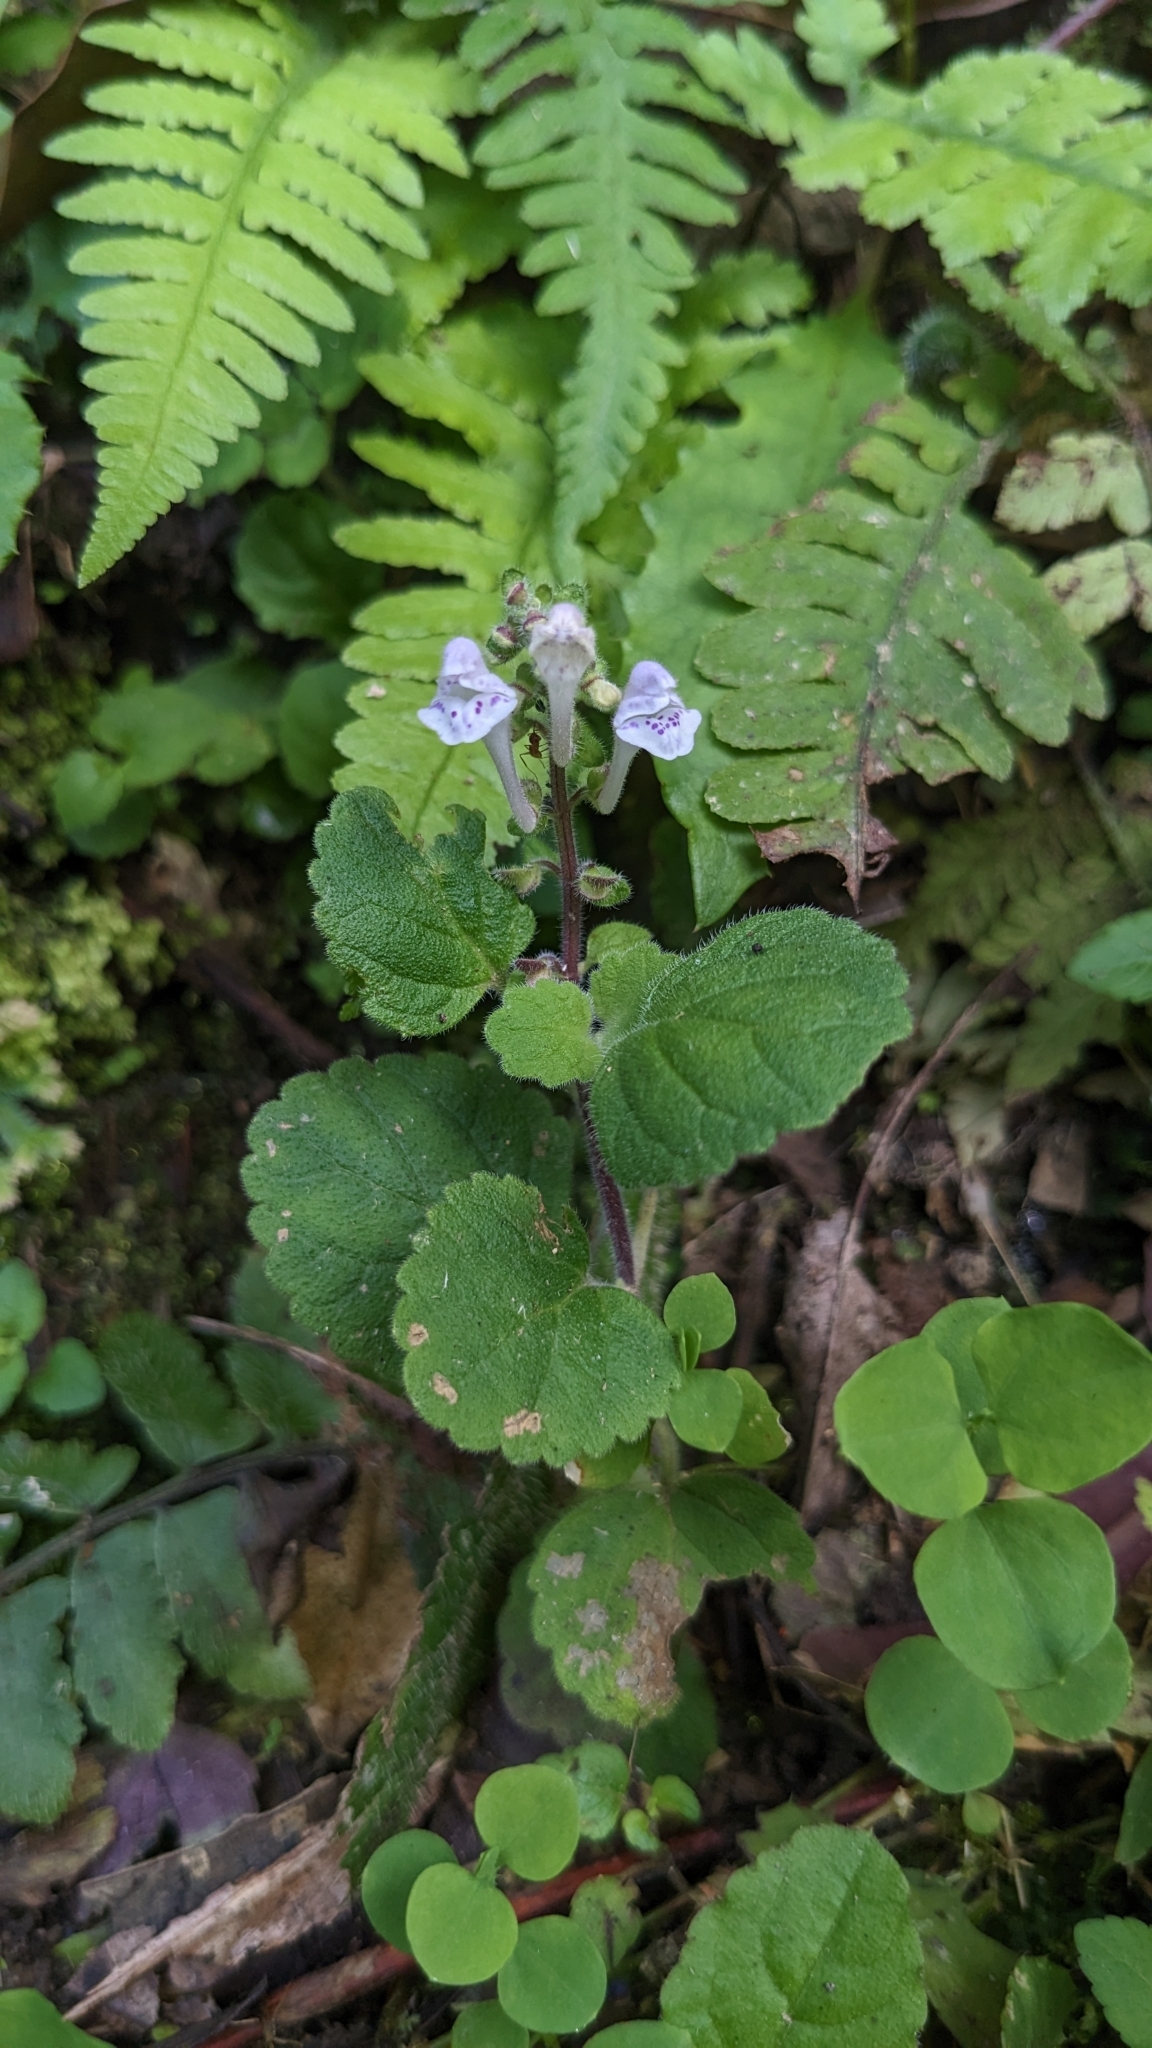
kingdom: Plantae
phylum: Tracheophyta
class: Magnoliopsida
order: Lamiales
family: Lamiaceae
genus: Scutellaria
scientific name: Scutellaria indica
